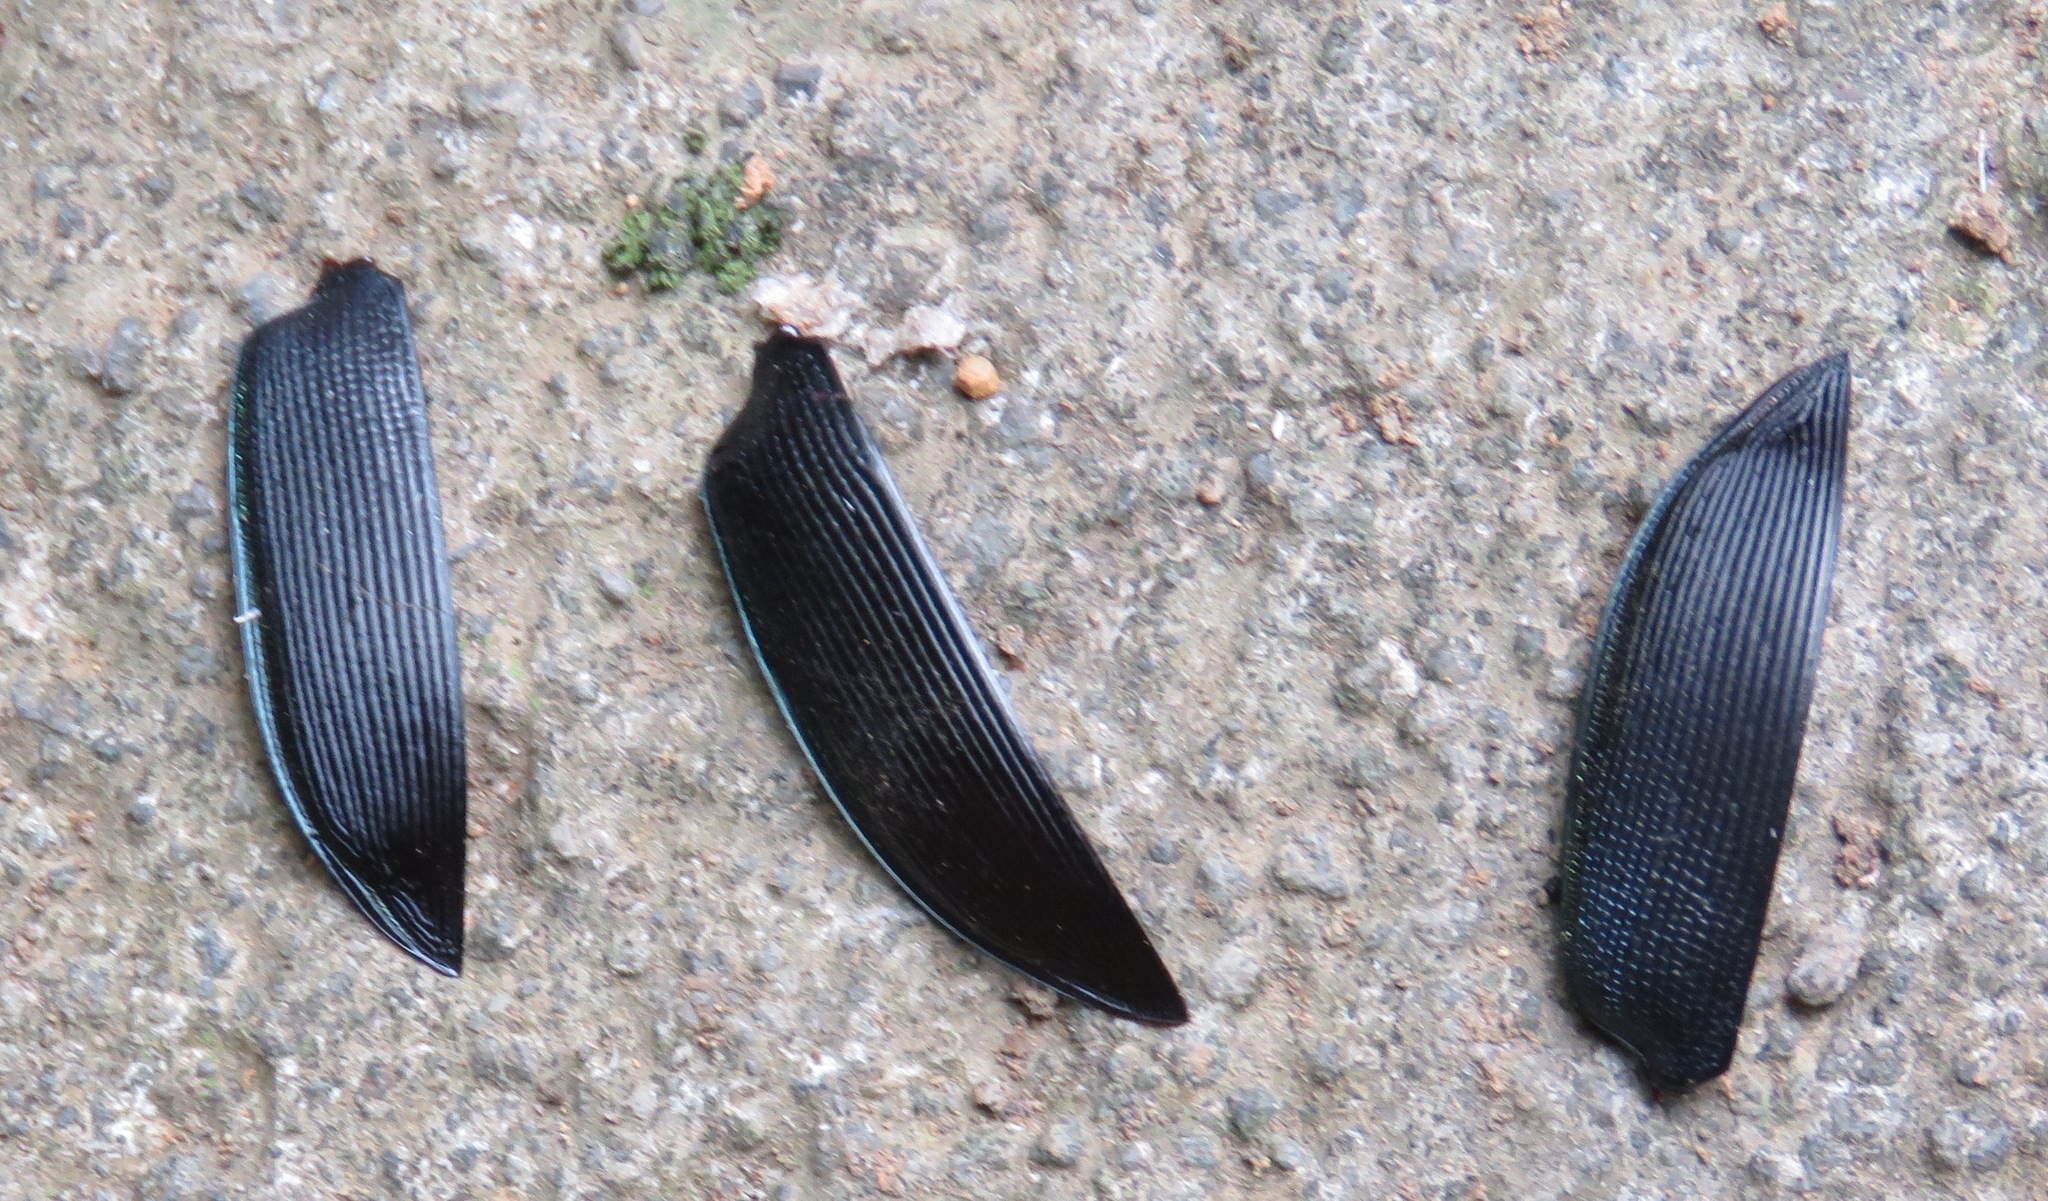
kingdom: Animalia
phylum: Arthropoda
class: Insecta
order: Coleoptera
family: Carabidae
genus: Calosoma
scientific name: Calosoma angulatum
